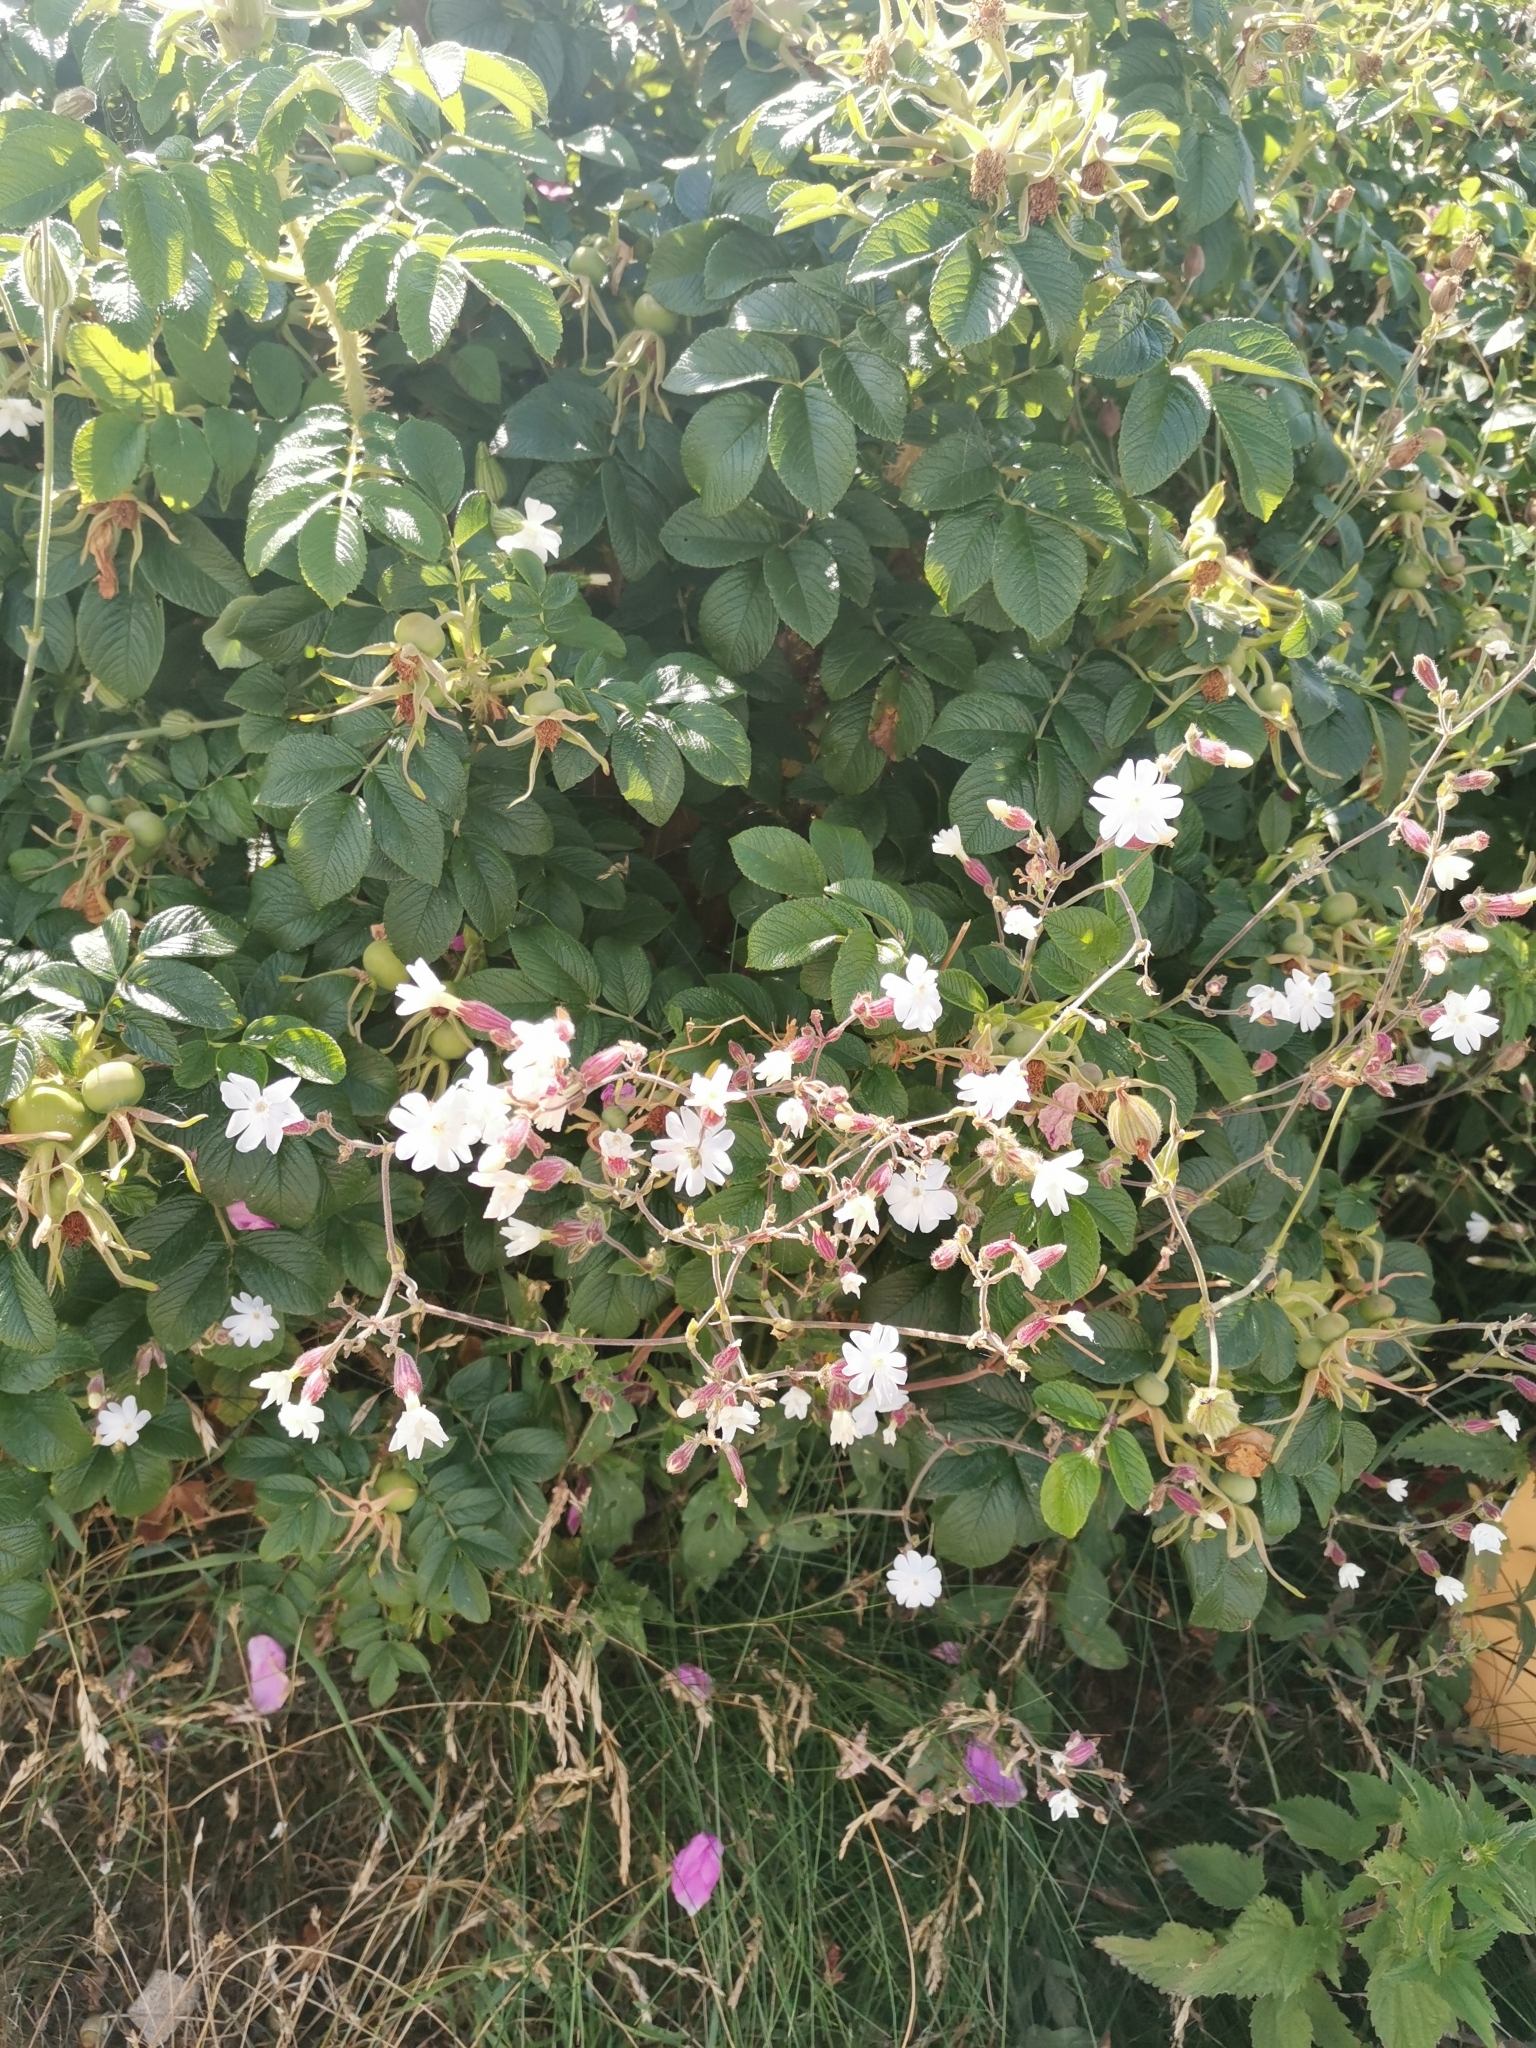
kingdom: Plantae
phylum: Tracheophyta
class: Magnoliopsida
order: Caryophyllales
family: Caryophyllaceae
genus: Silene
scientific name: Silene latifolia
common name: White campion
